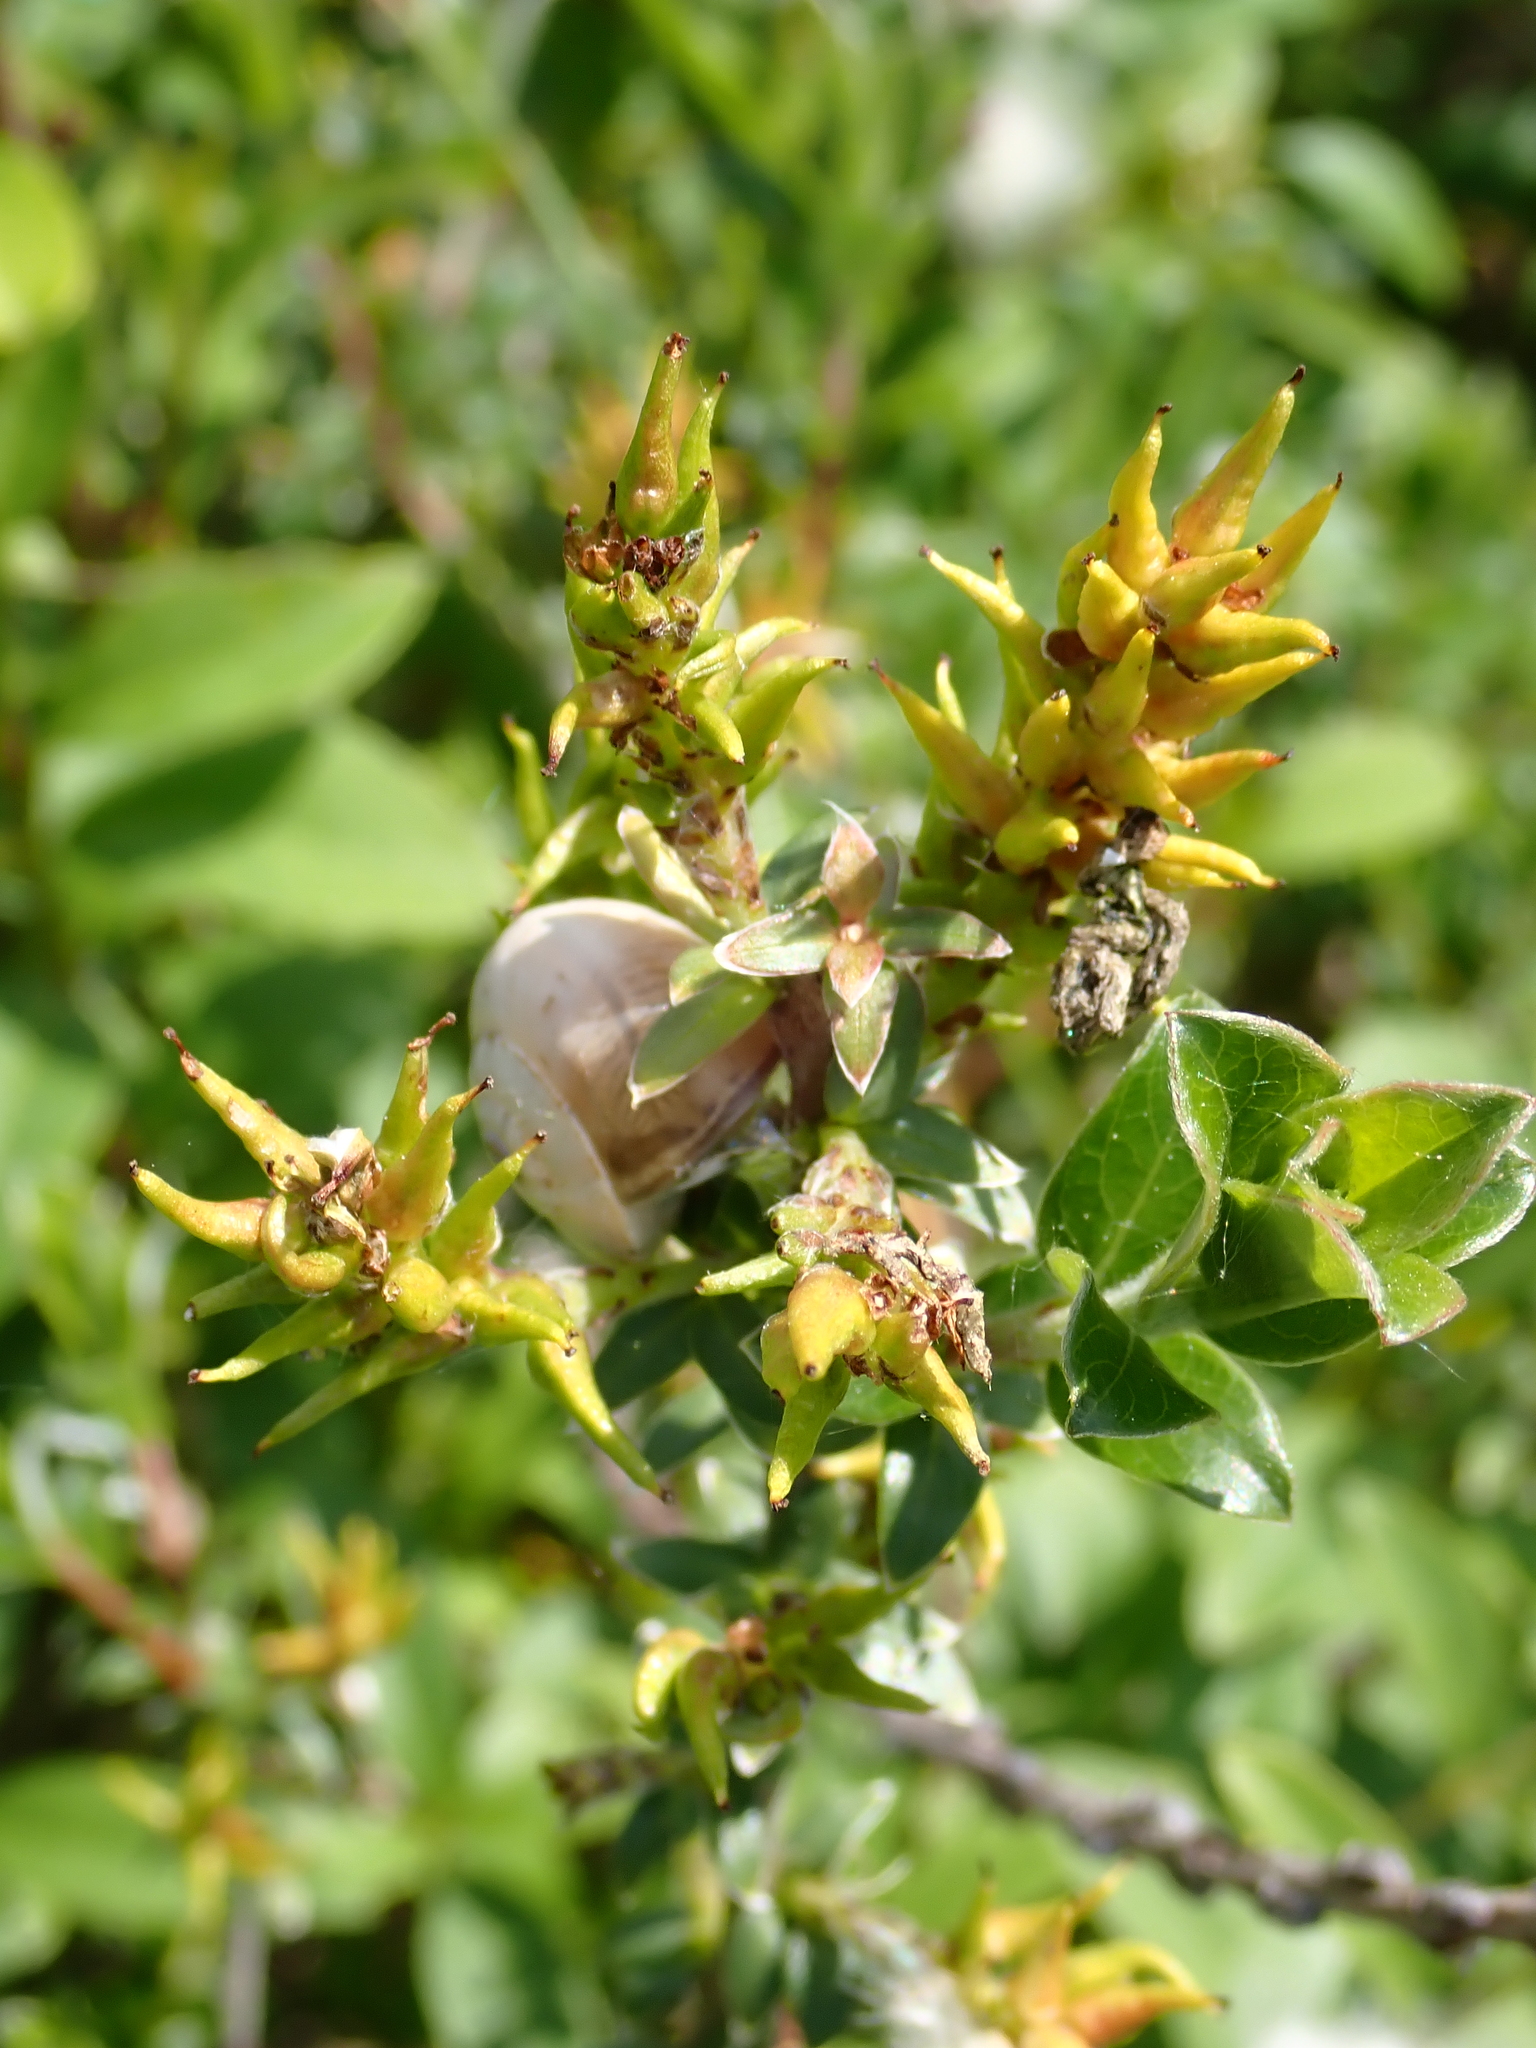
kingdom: Plantae
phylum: Tracheophyta
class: Magnoliopsida
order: Malpighiales
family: Salicaceae
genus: Salix
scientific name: Salix repens
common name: Creeping willow
